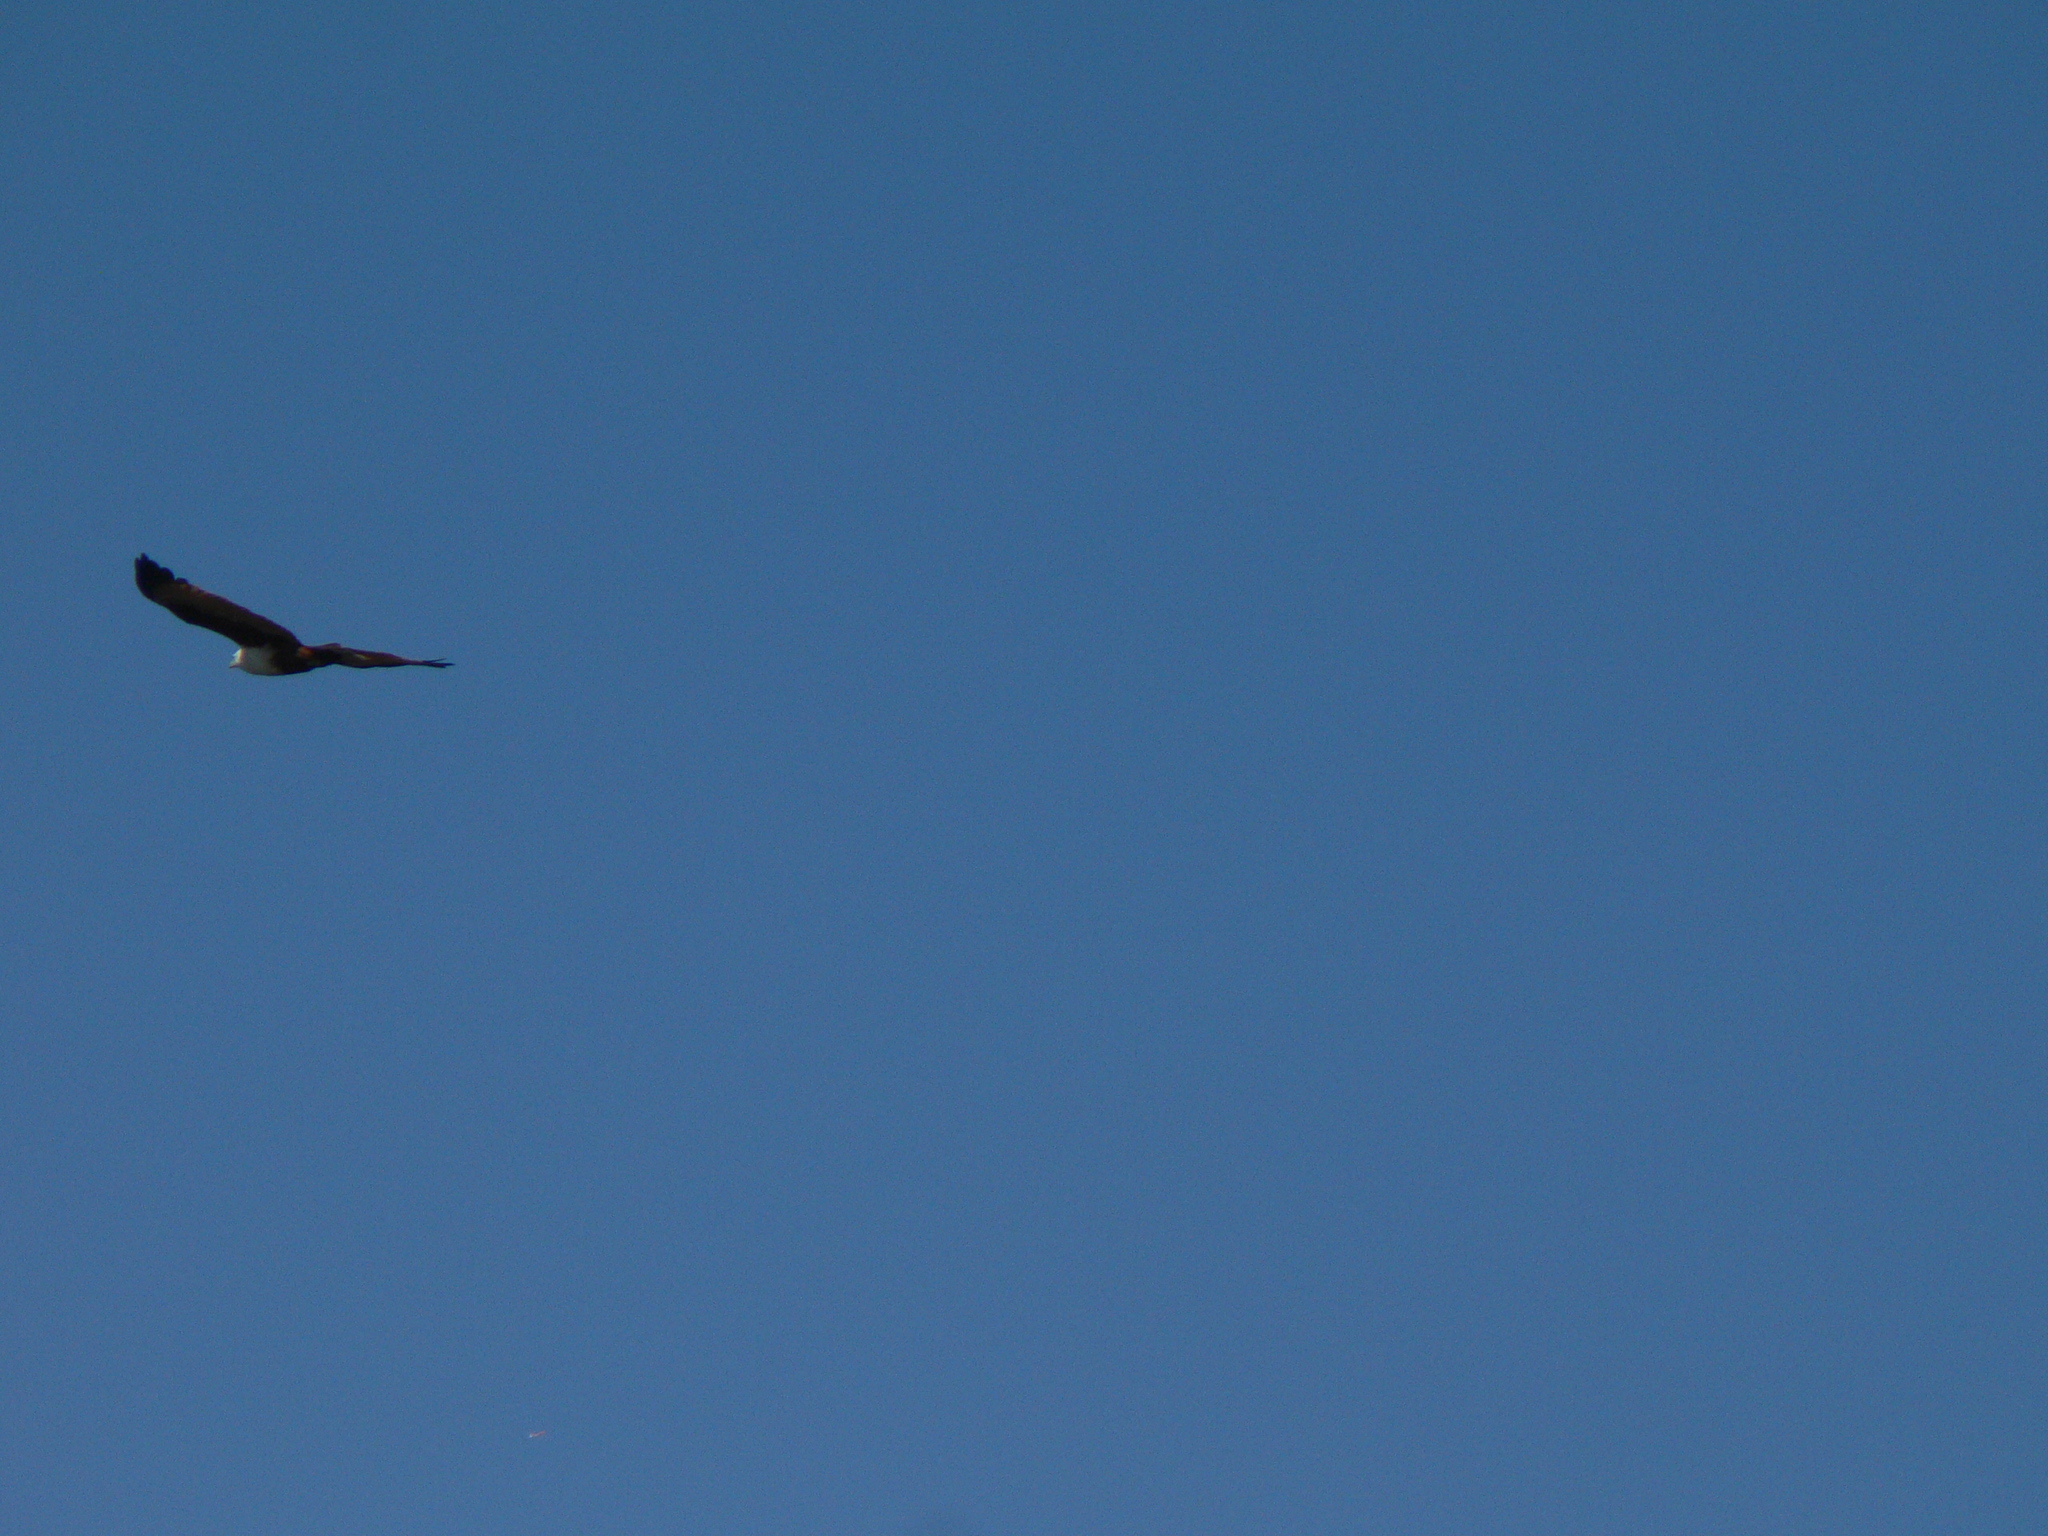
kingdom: Animalia
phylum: Chordata
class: Aves
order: Accipitriformes
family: Accipitridae
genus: Haliastur
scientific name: Haliastur indus
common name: Brahminy kite
